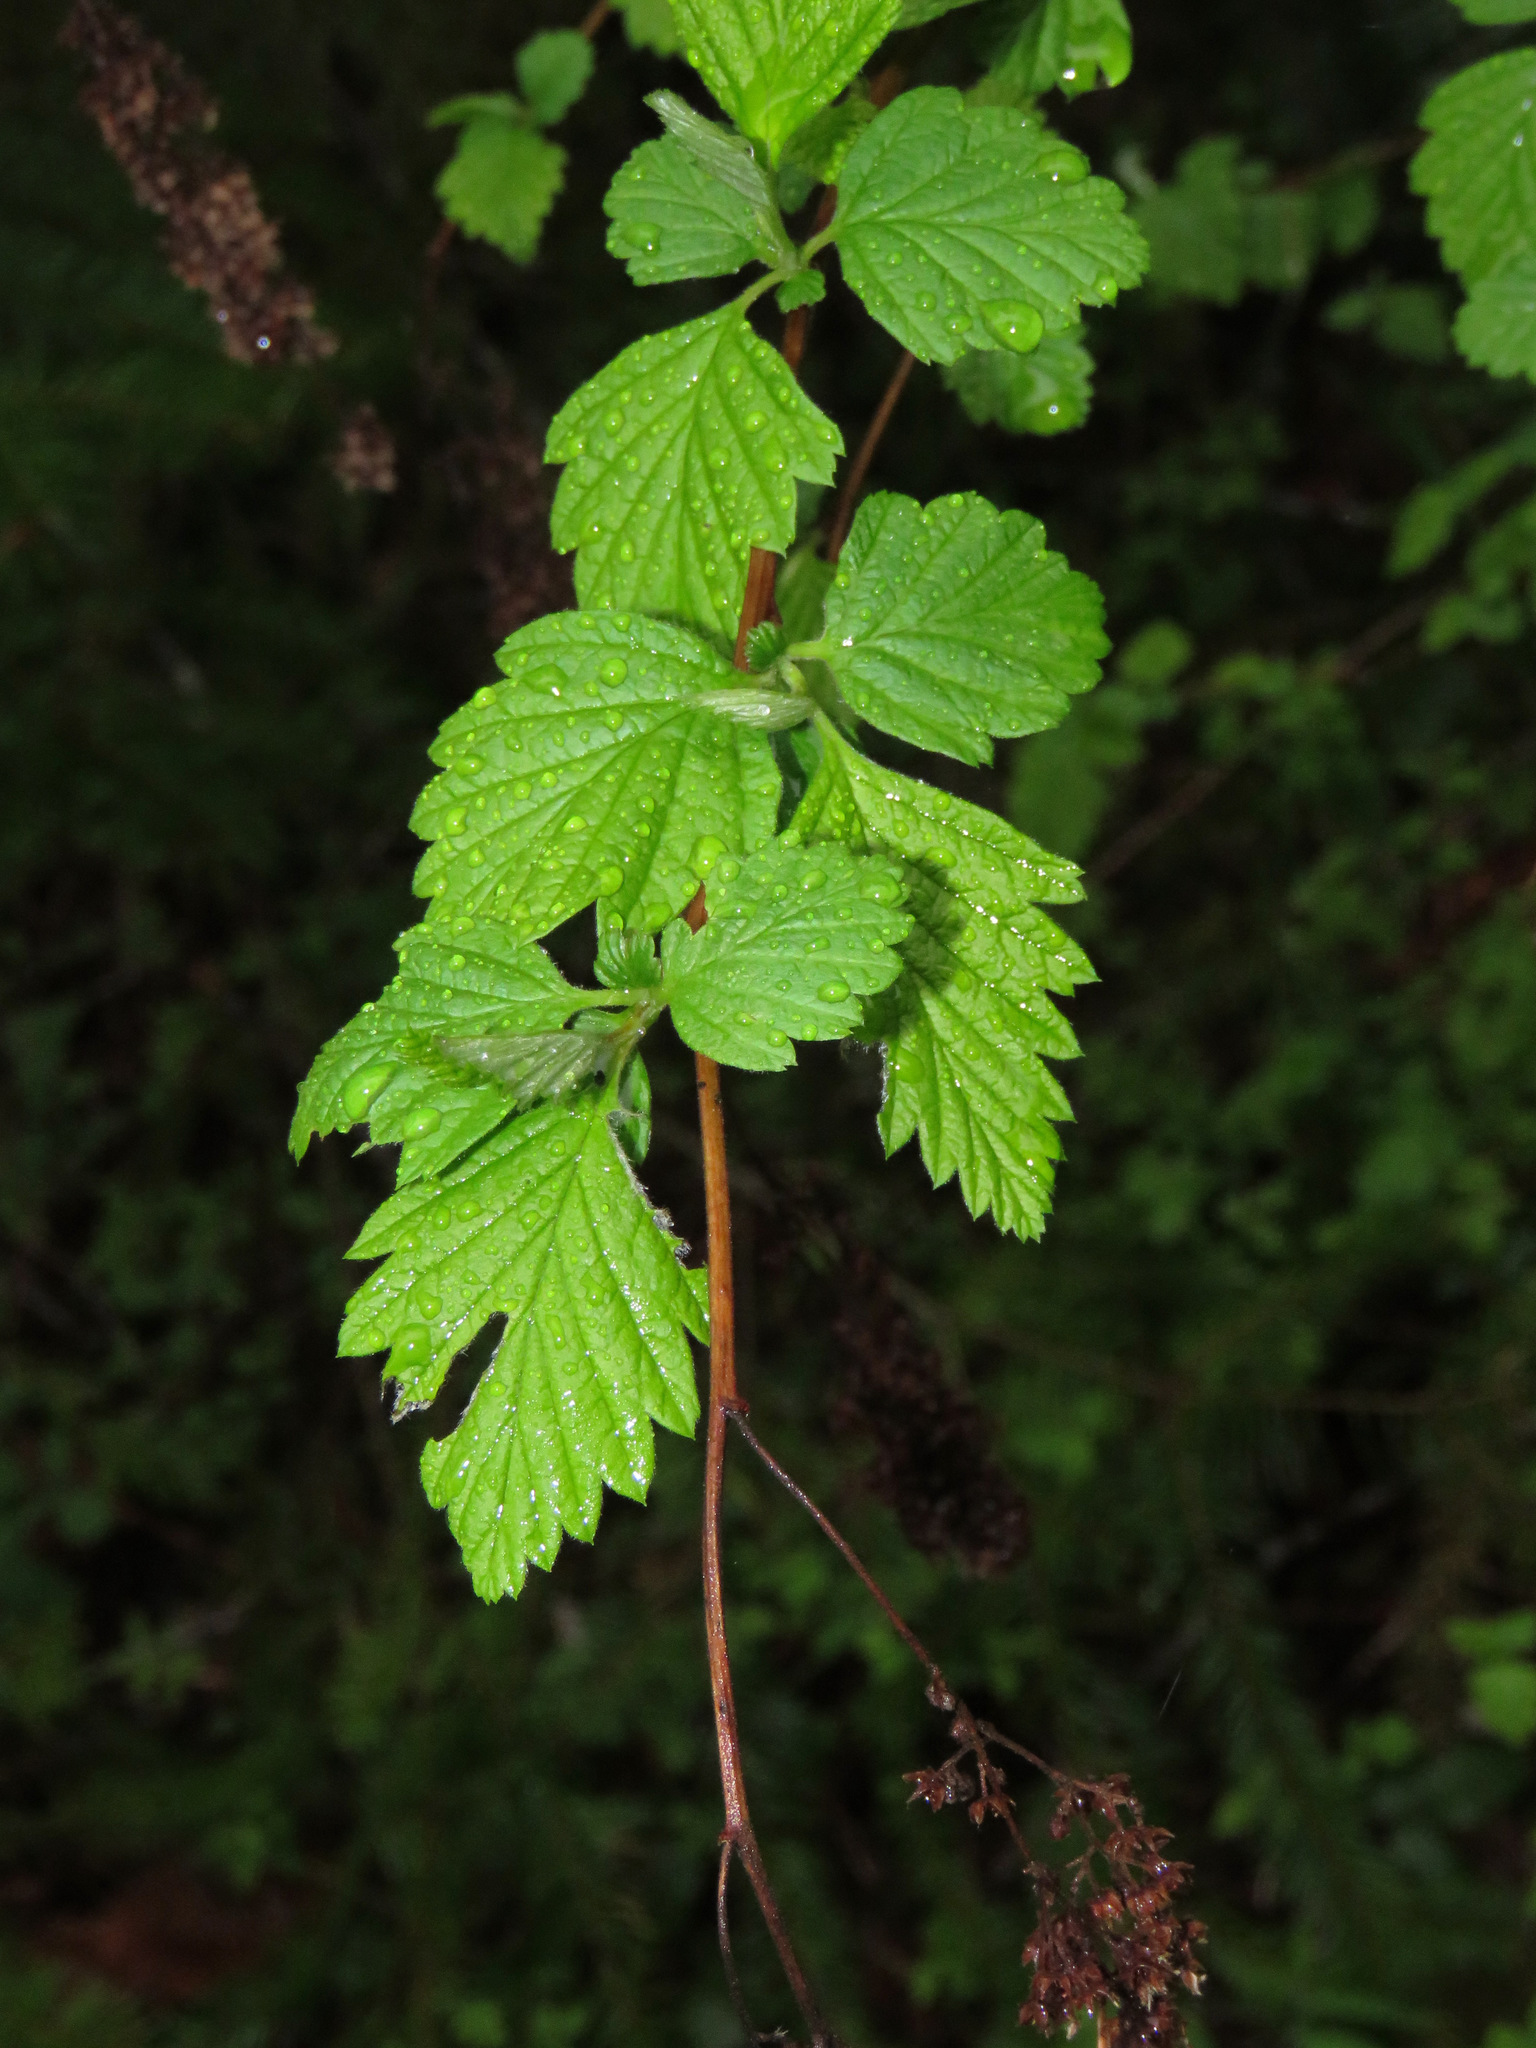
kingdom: Plantae
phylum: Tracheophyta
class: Magnoliopsida
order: Rosales
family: Rosaceae
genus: Holodiscus
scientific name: Holodiscus discolor
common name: Oceanspray
